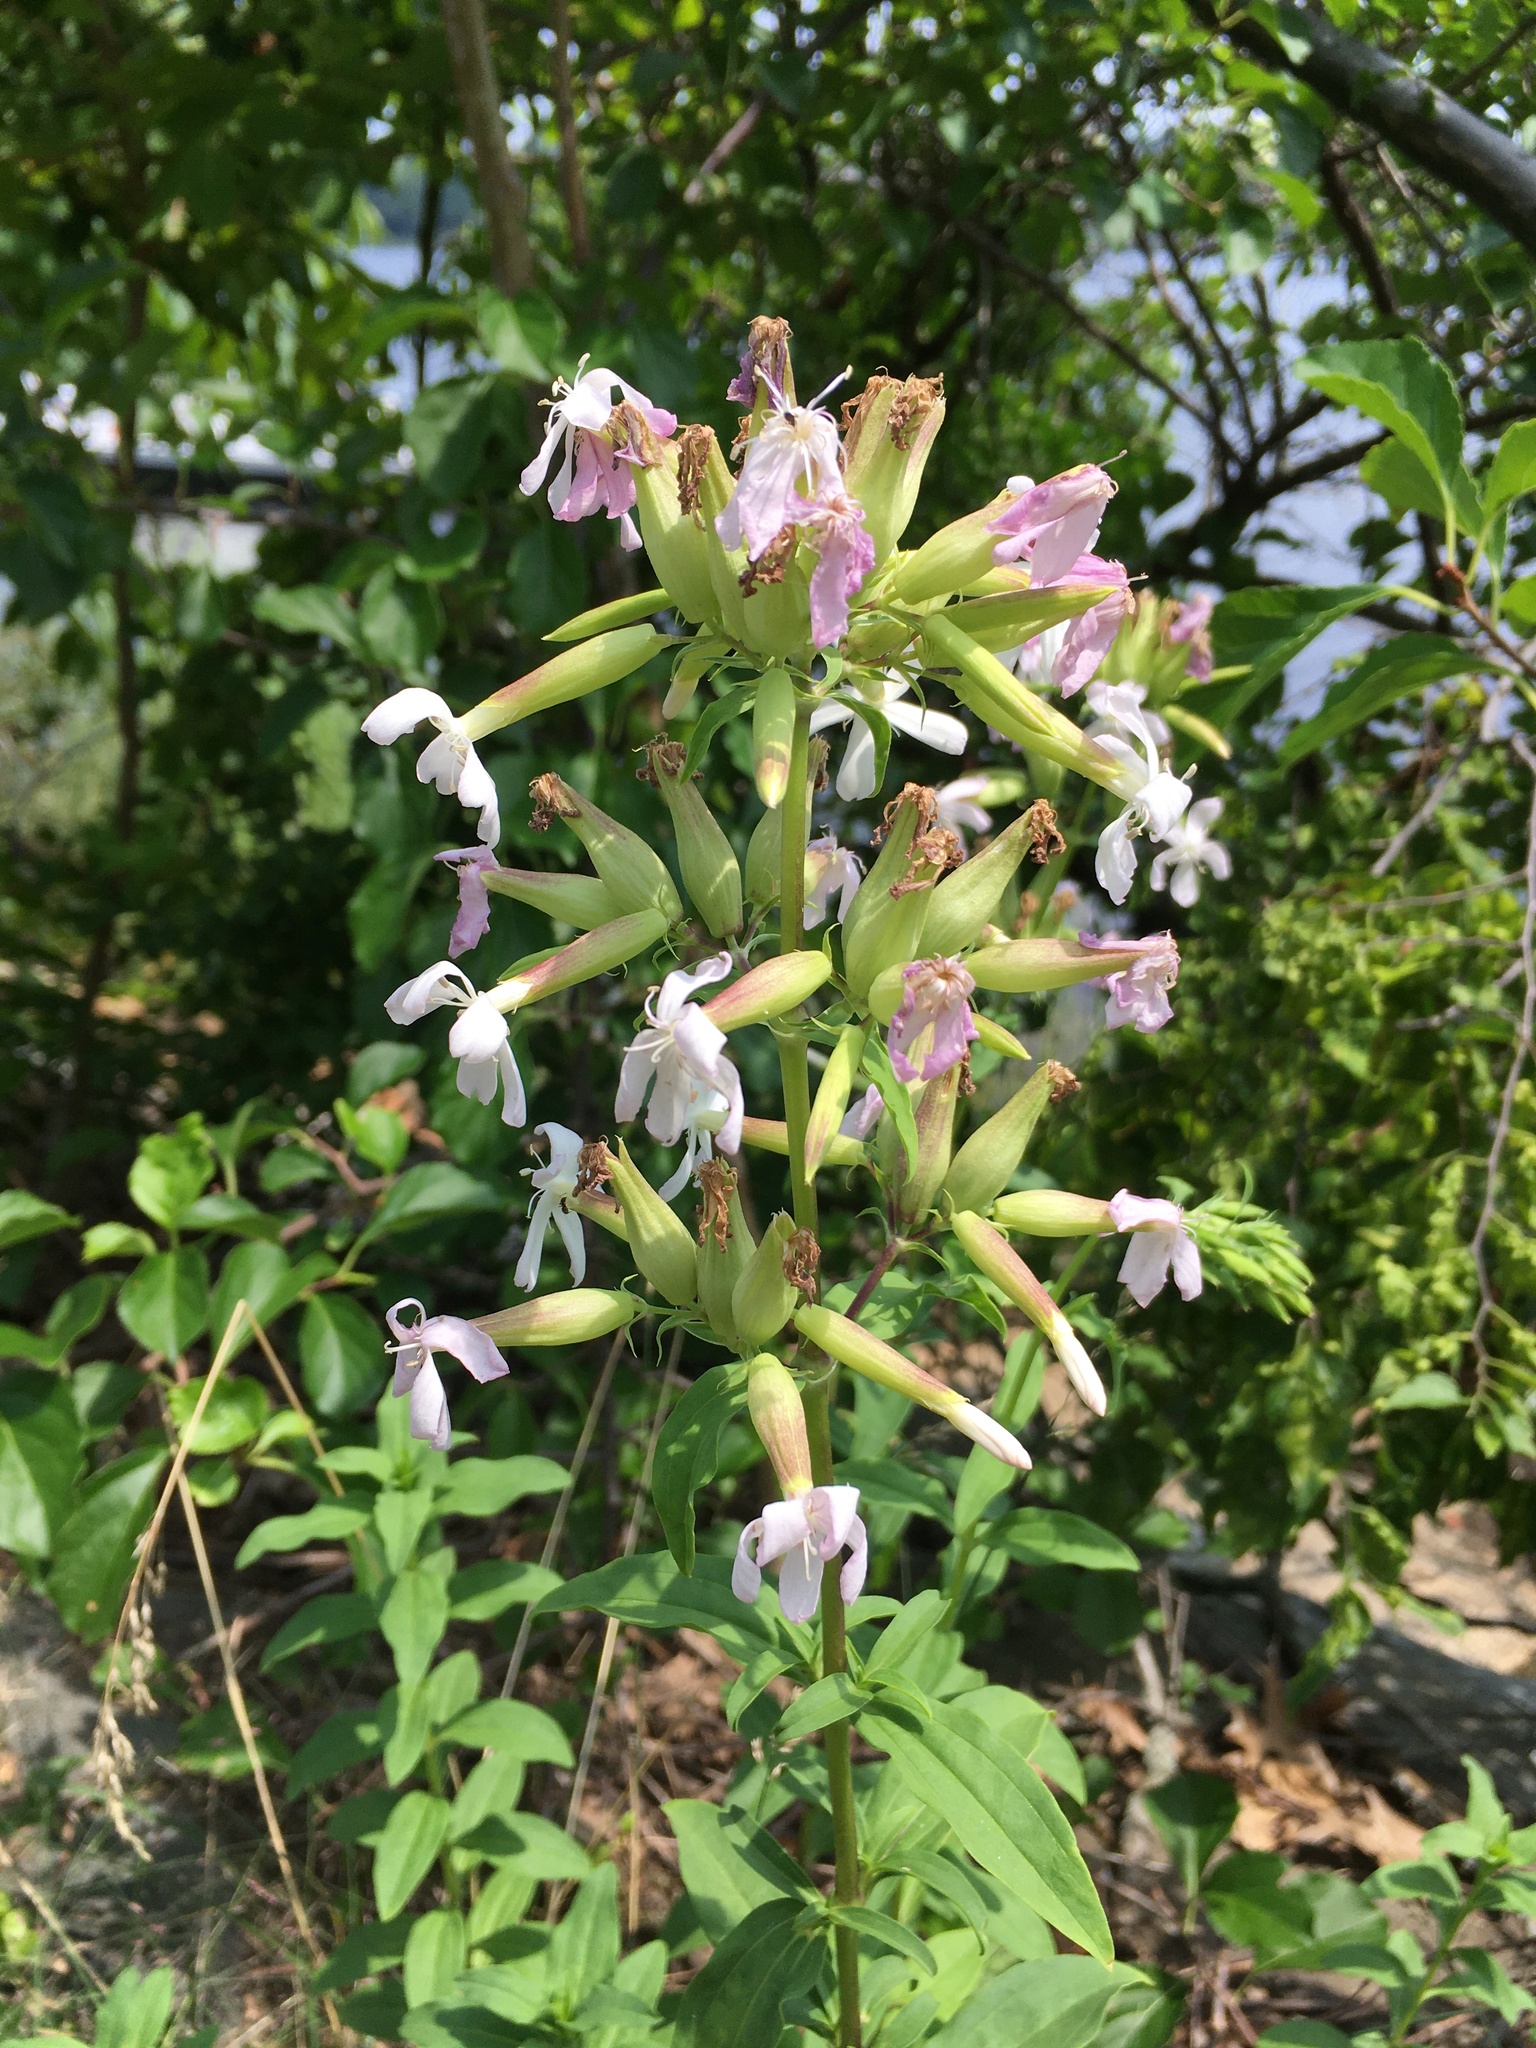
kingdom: Plantae
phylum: Tracheophyta
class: Magnoliopsida
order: Caryophyllales
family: Caryophyllaceae
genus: Saponaria
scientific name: Saponaria officinalis
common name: Soapwort
